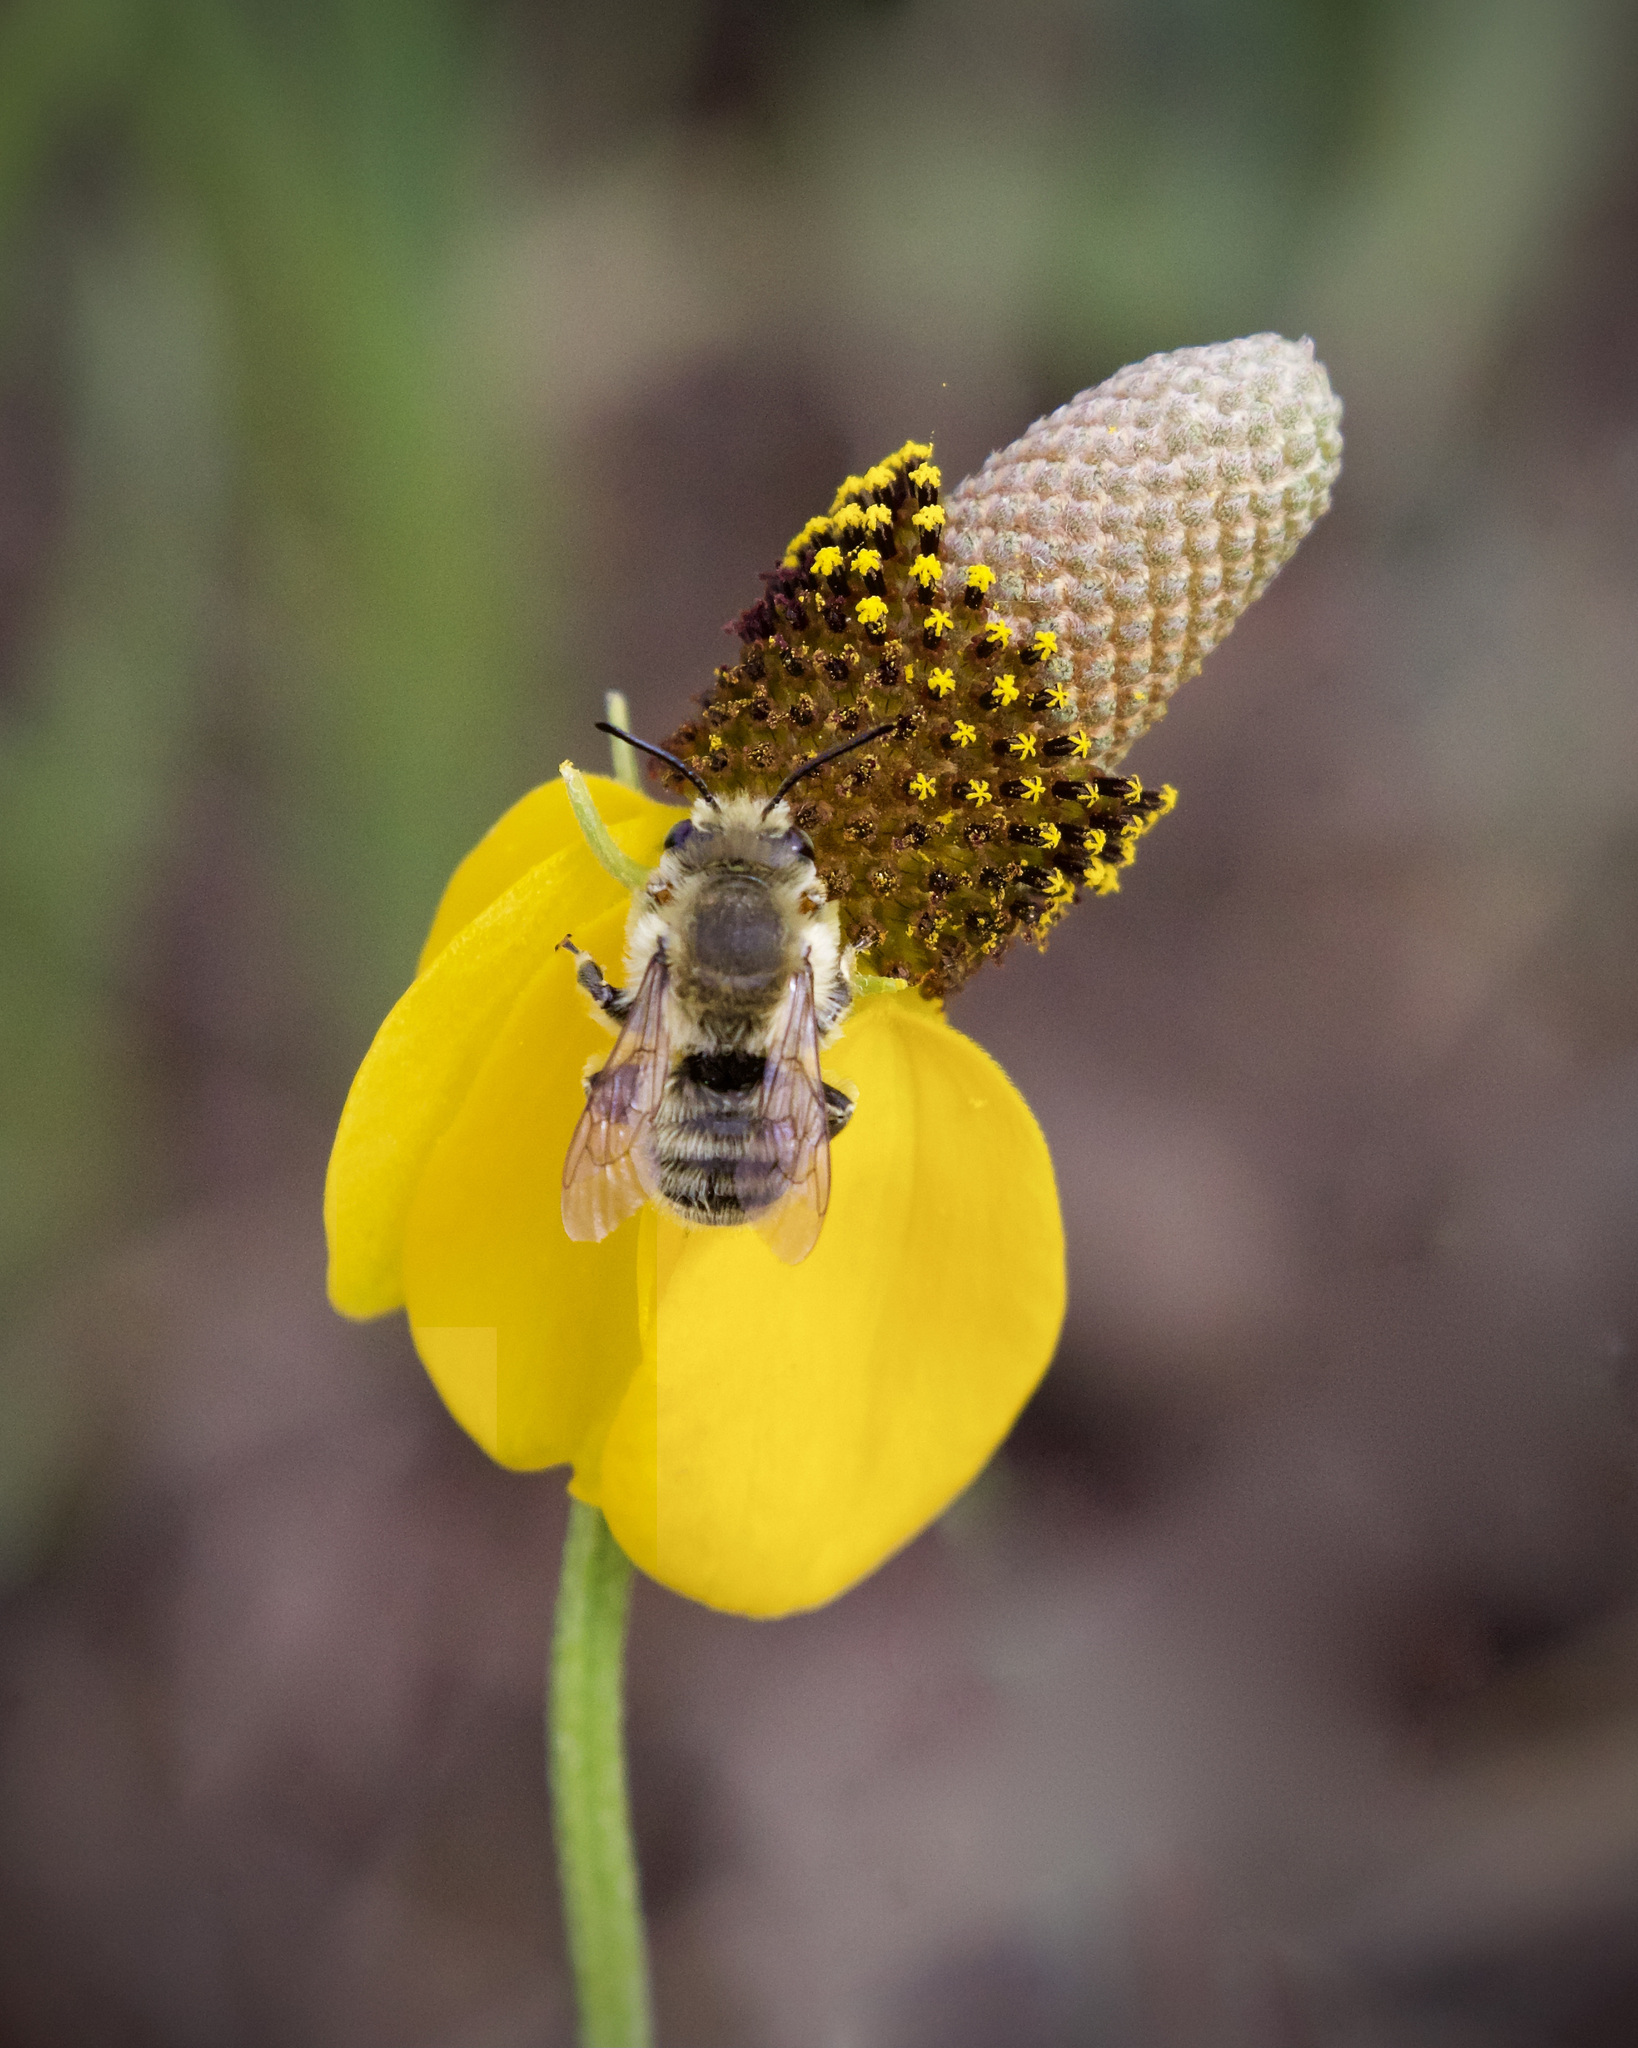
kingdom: Plantae
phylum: Tracheophyta
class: Magnoliopsida
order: Asterales
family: Asteraceae
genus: Ratibida
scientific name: Ratibida columnifera
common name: Prairie coneflower
